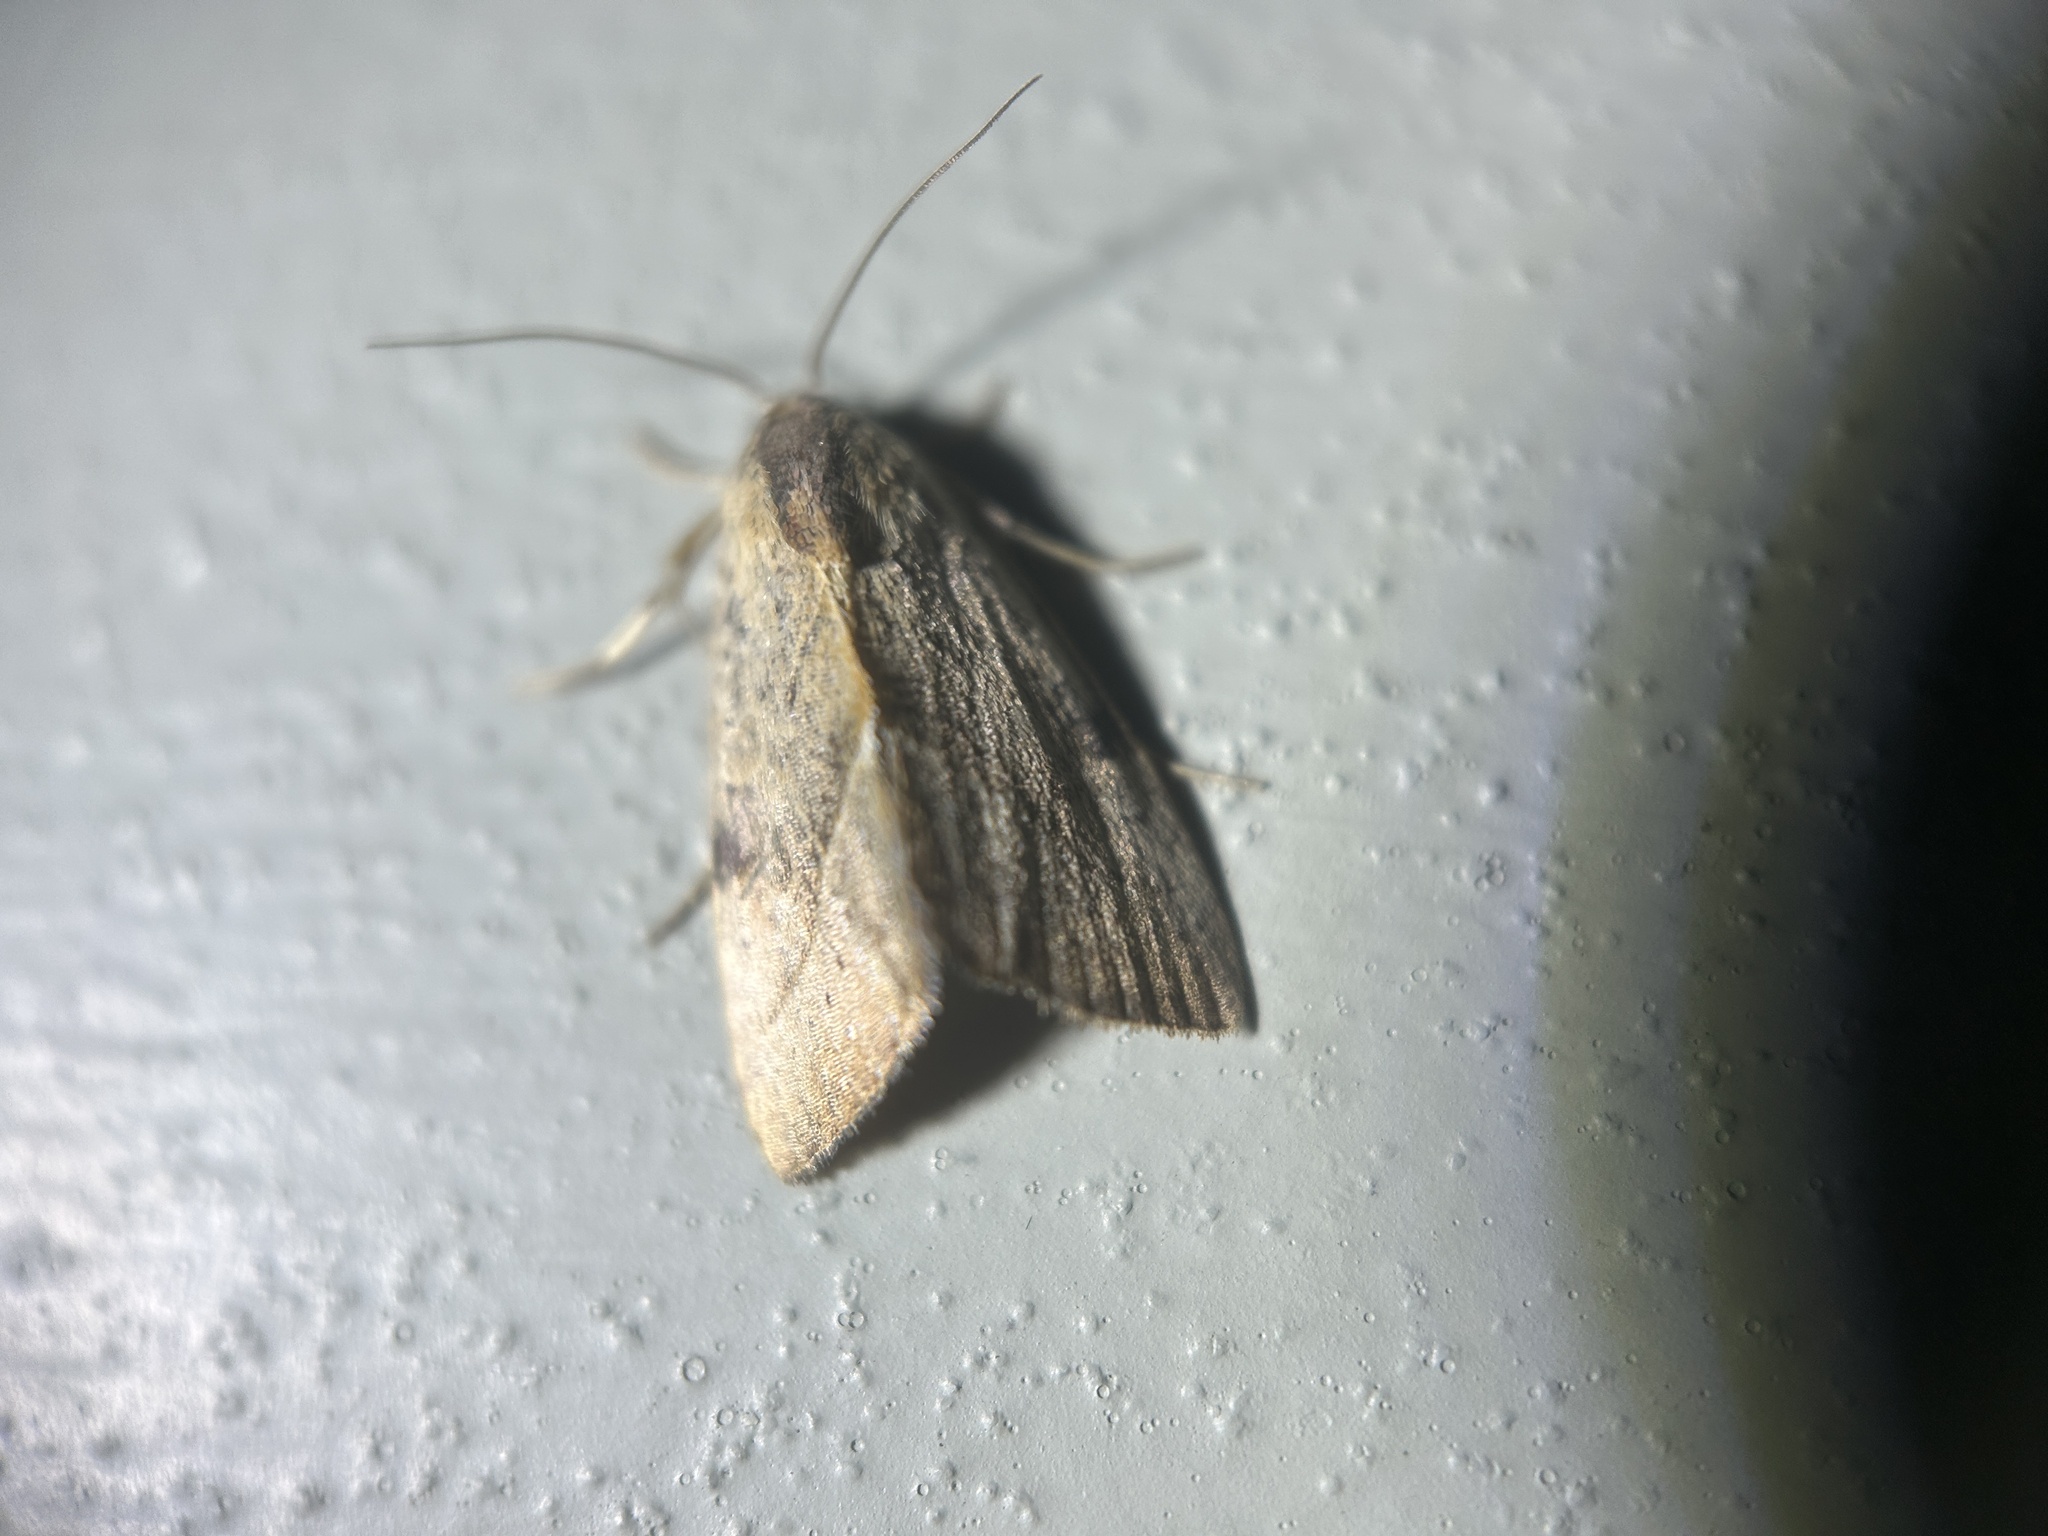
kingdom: Animalia
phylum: Arthropoda
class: Insecta
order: Lepidoptera
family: Noctuidae
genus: Galgula
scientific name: Galgula partita
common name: Wedgeling
